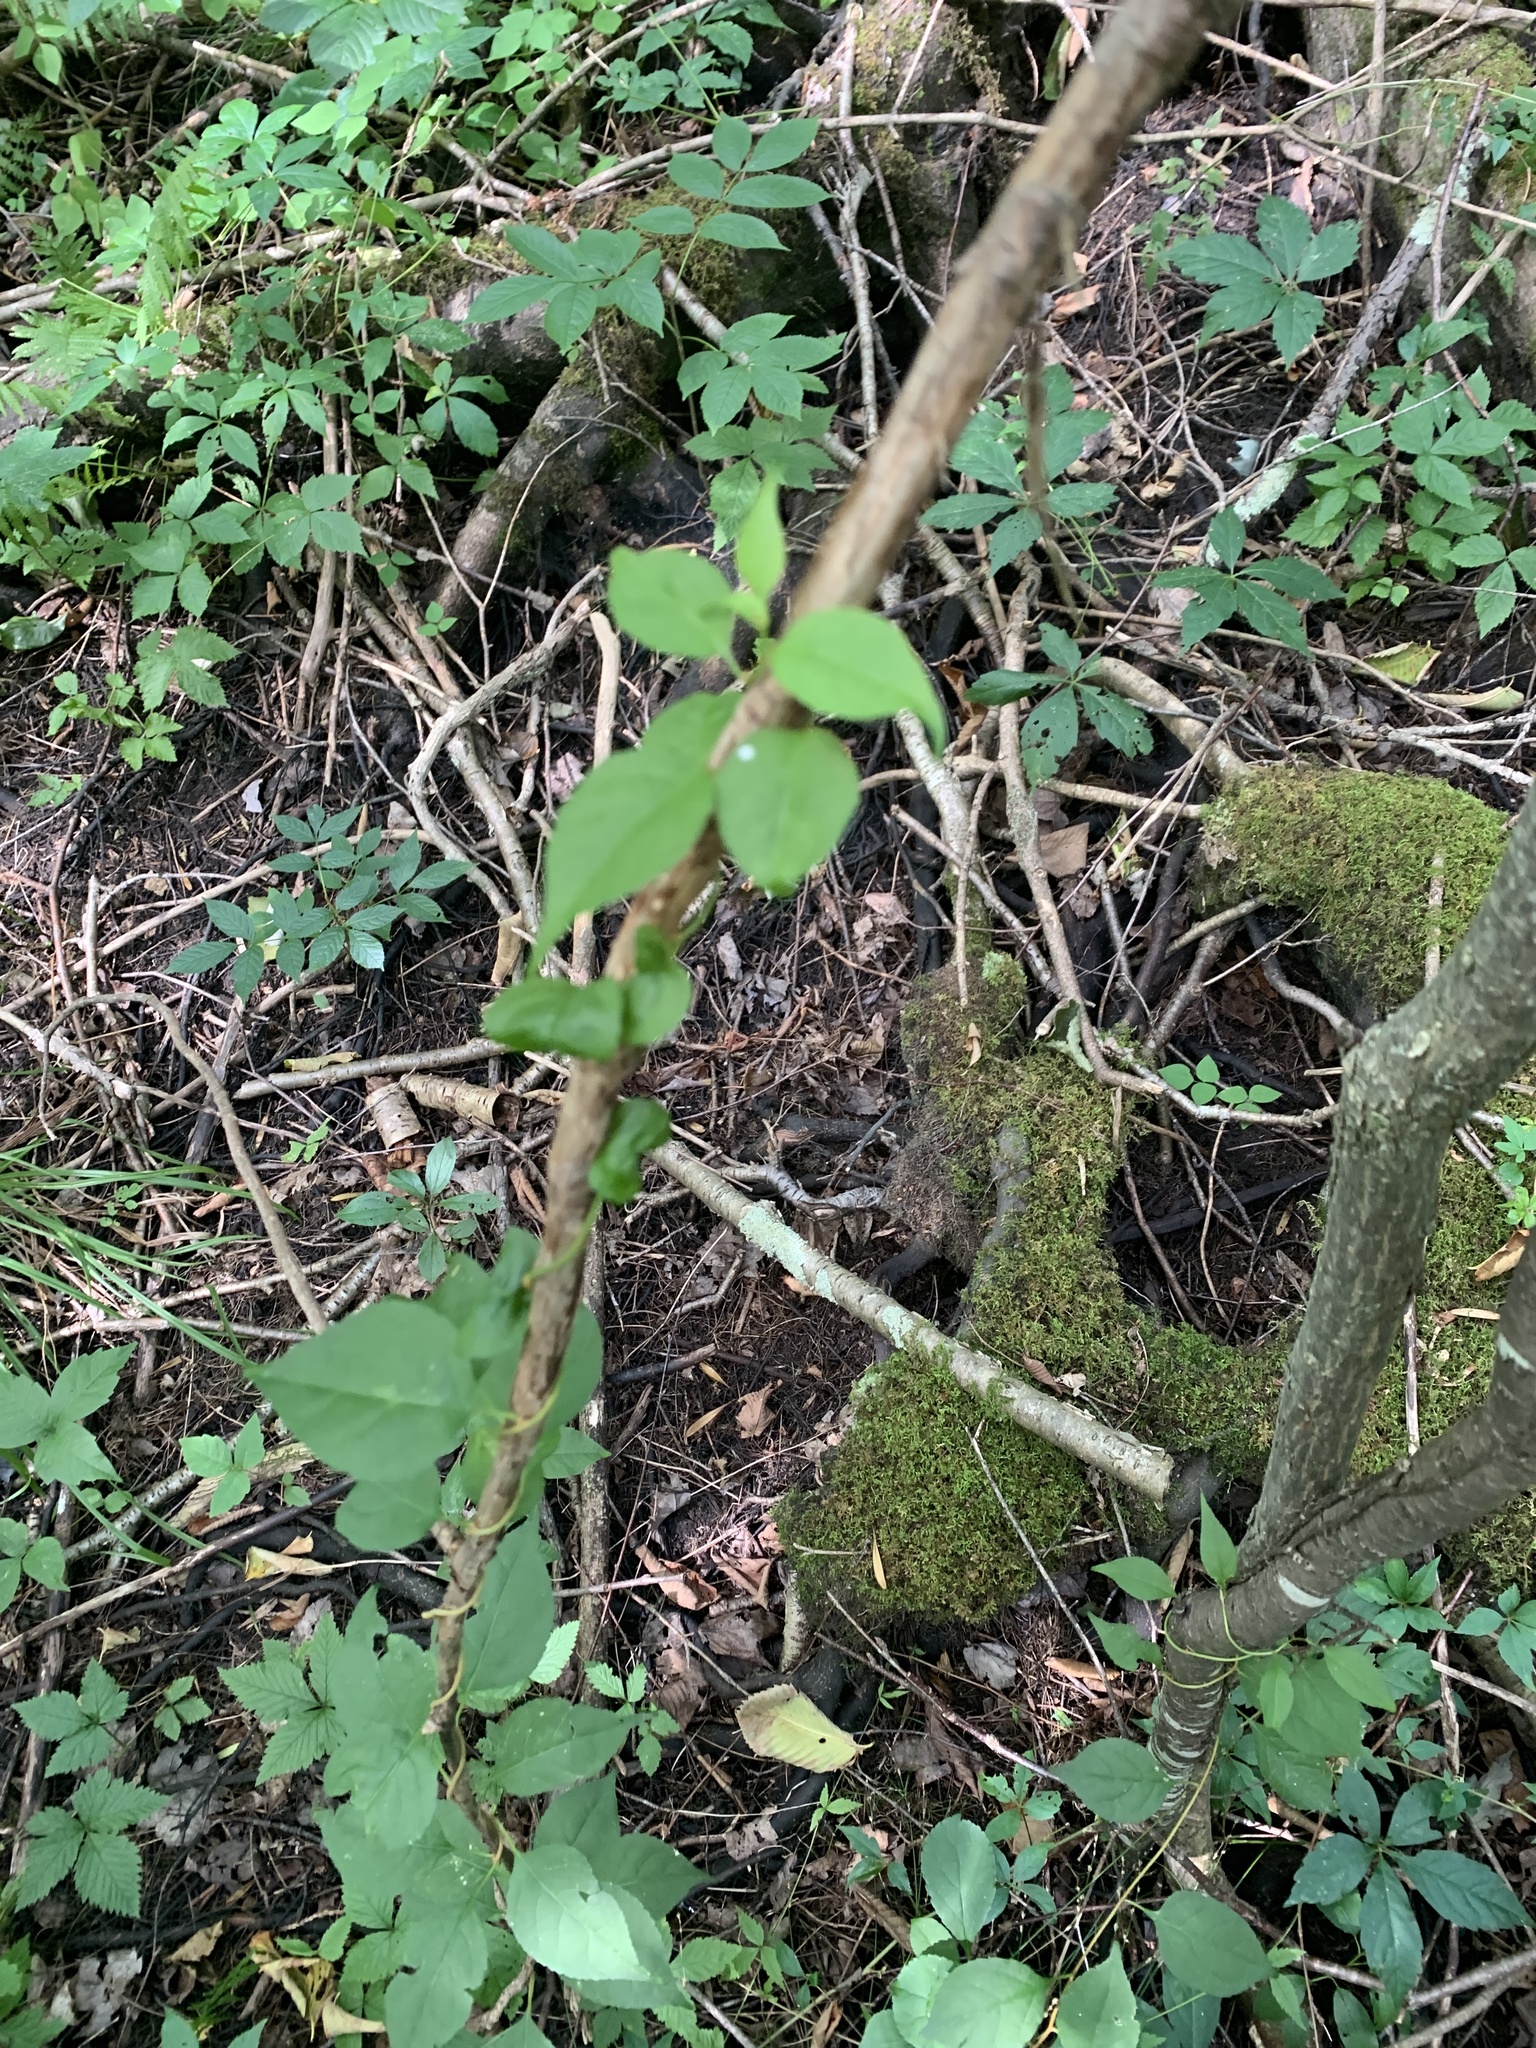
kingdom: Plantae
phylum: Tracheophyta
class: Magnoliopsida
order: Celastrales
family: Celastraceae
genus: Celastrus
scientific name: Celastrus orbiculatus
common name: Oriental bittersweet
